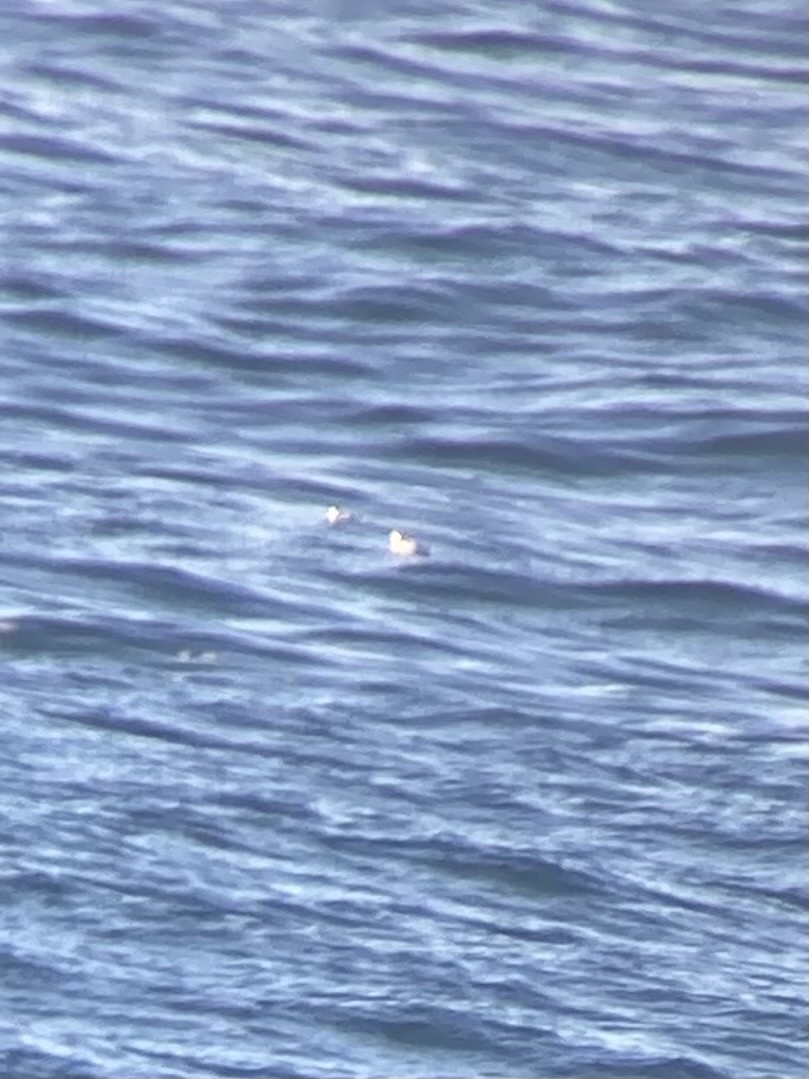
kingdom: Animalia
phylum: Chordata
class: Aves
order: Charadriiformes
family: Alcidae
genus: Brachyramphus
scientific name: Brachyramphus marmoratus
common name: Marbled murrelet
